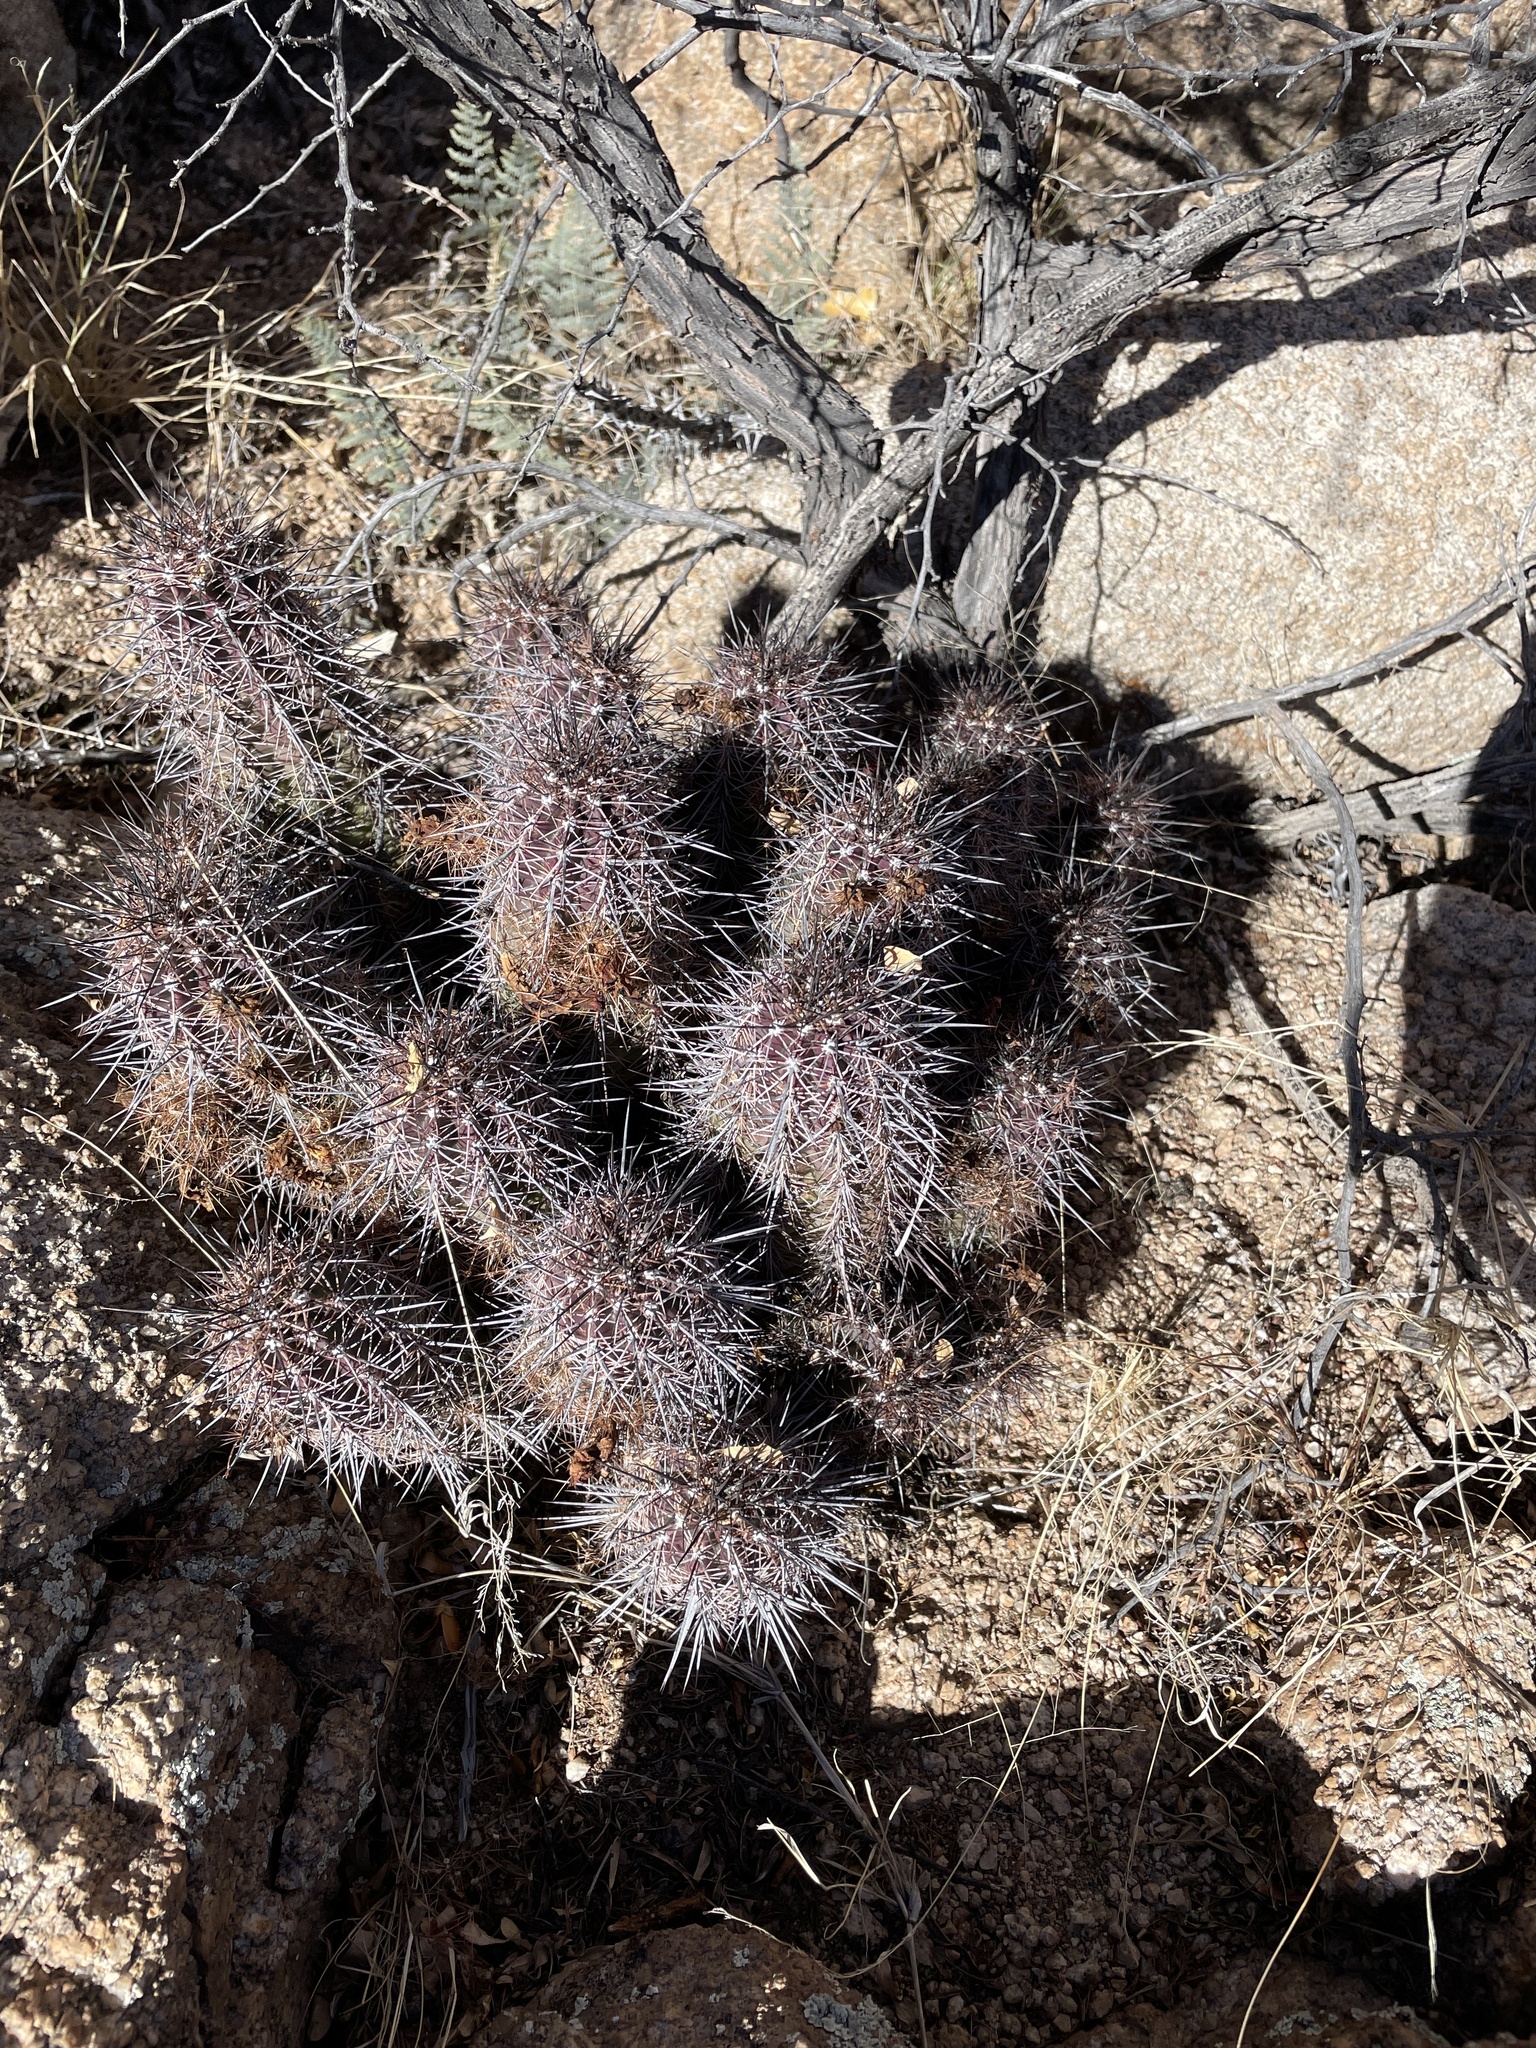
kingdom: Plantae
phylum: Tracheophyta
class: Magnoliopsida
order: Caryophyllales
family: Cactaceae
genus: Echinocereus
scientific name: Echinocereus arizonicus
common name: Arizona hedgehog cactus
